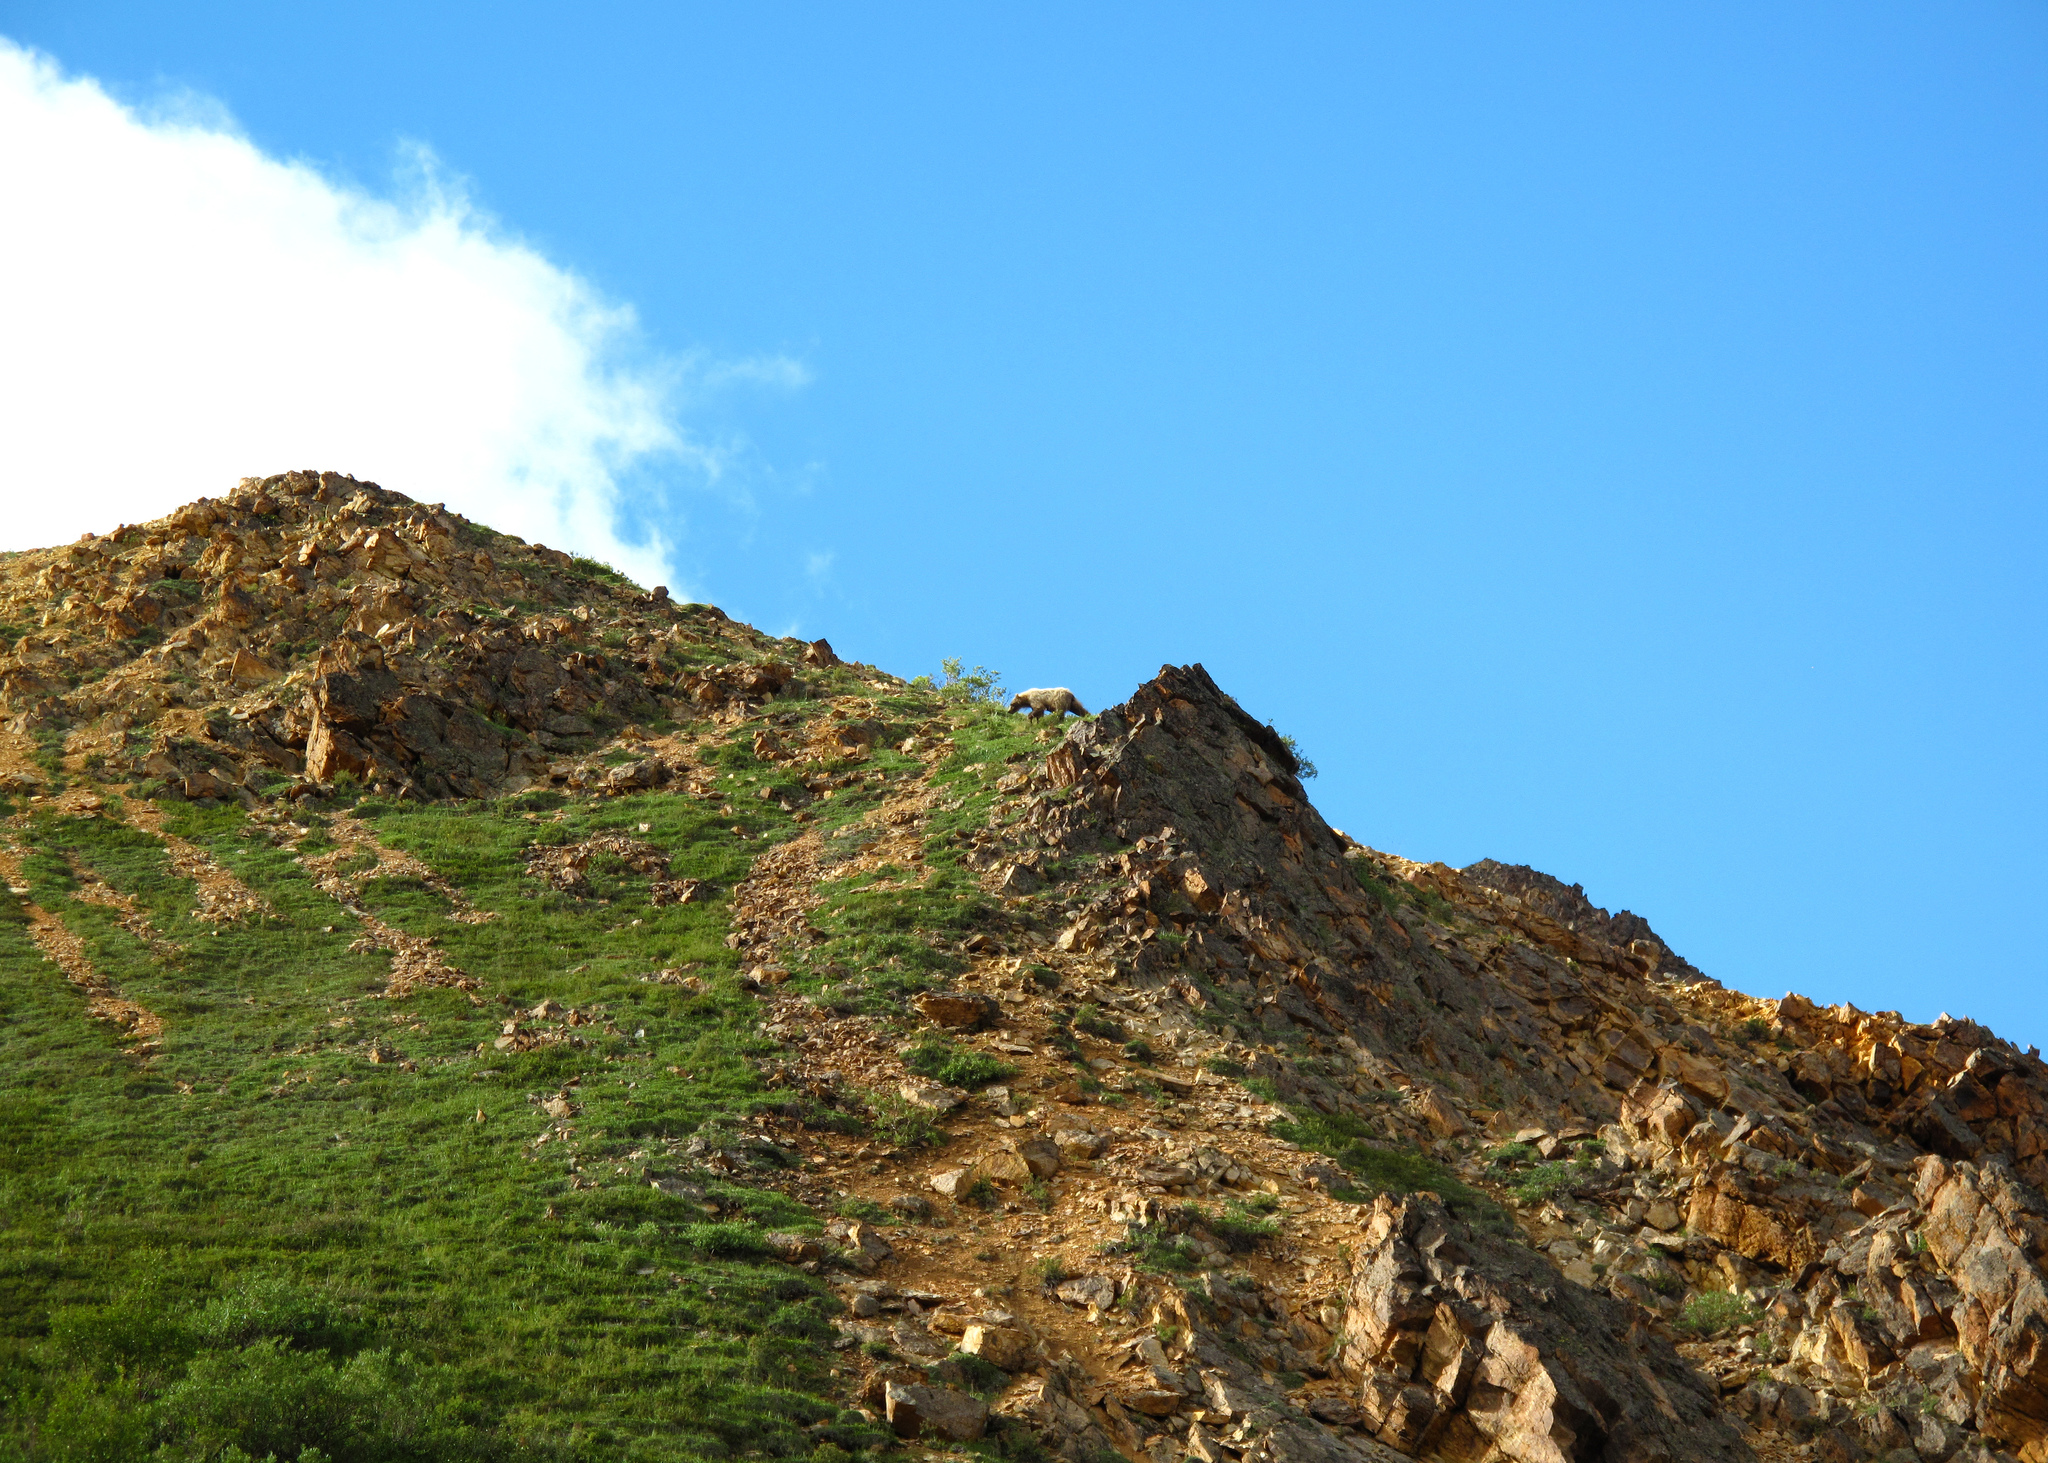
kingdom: Animalia
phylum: Chordata
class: Mammalia
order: Carnivora
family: Ursidae
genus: Ursus
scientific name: Ursus arctos
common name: Brown bear
